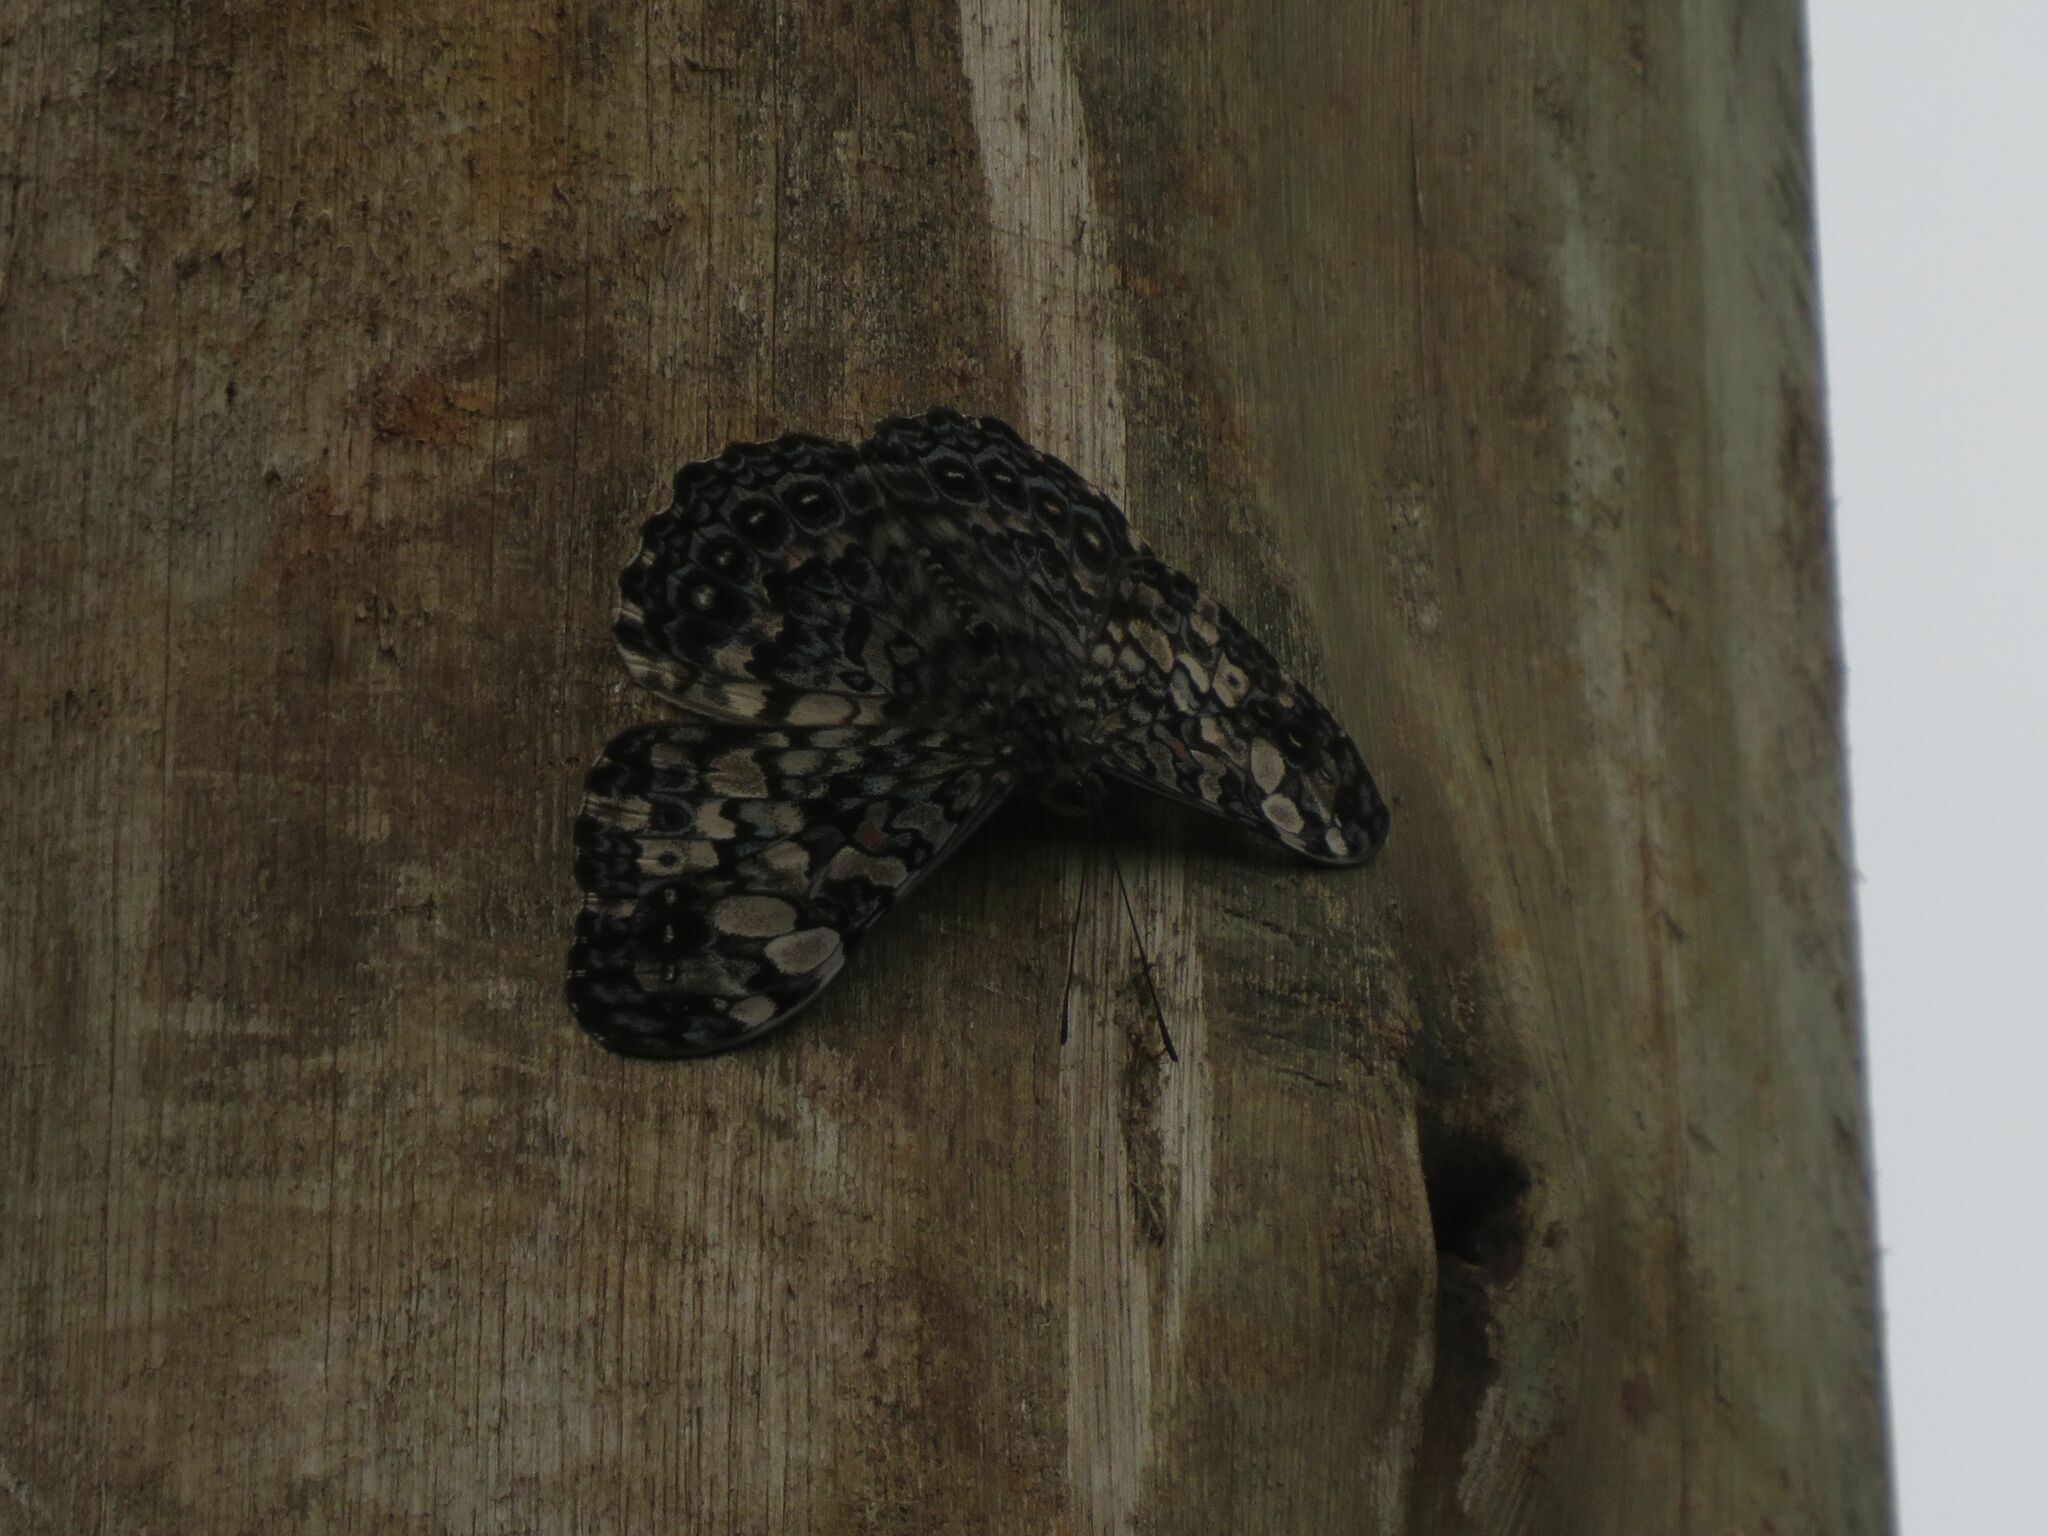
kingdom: Animalia
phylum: Arthropoda
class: Insecta
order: Lepidoptera
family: Nymphalidae
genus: Hamadryas
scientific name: Hamadryas epinome
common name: Epinome cracker
